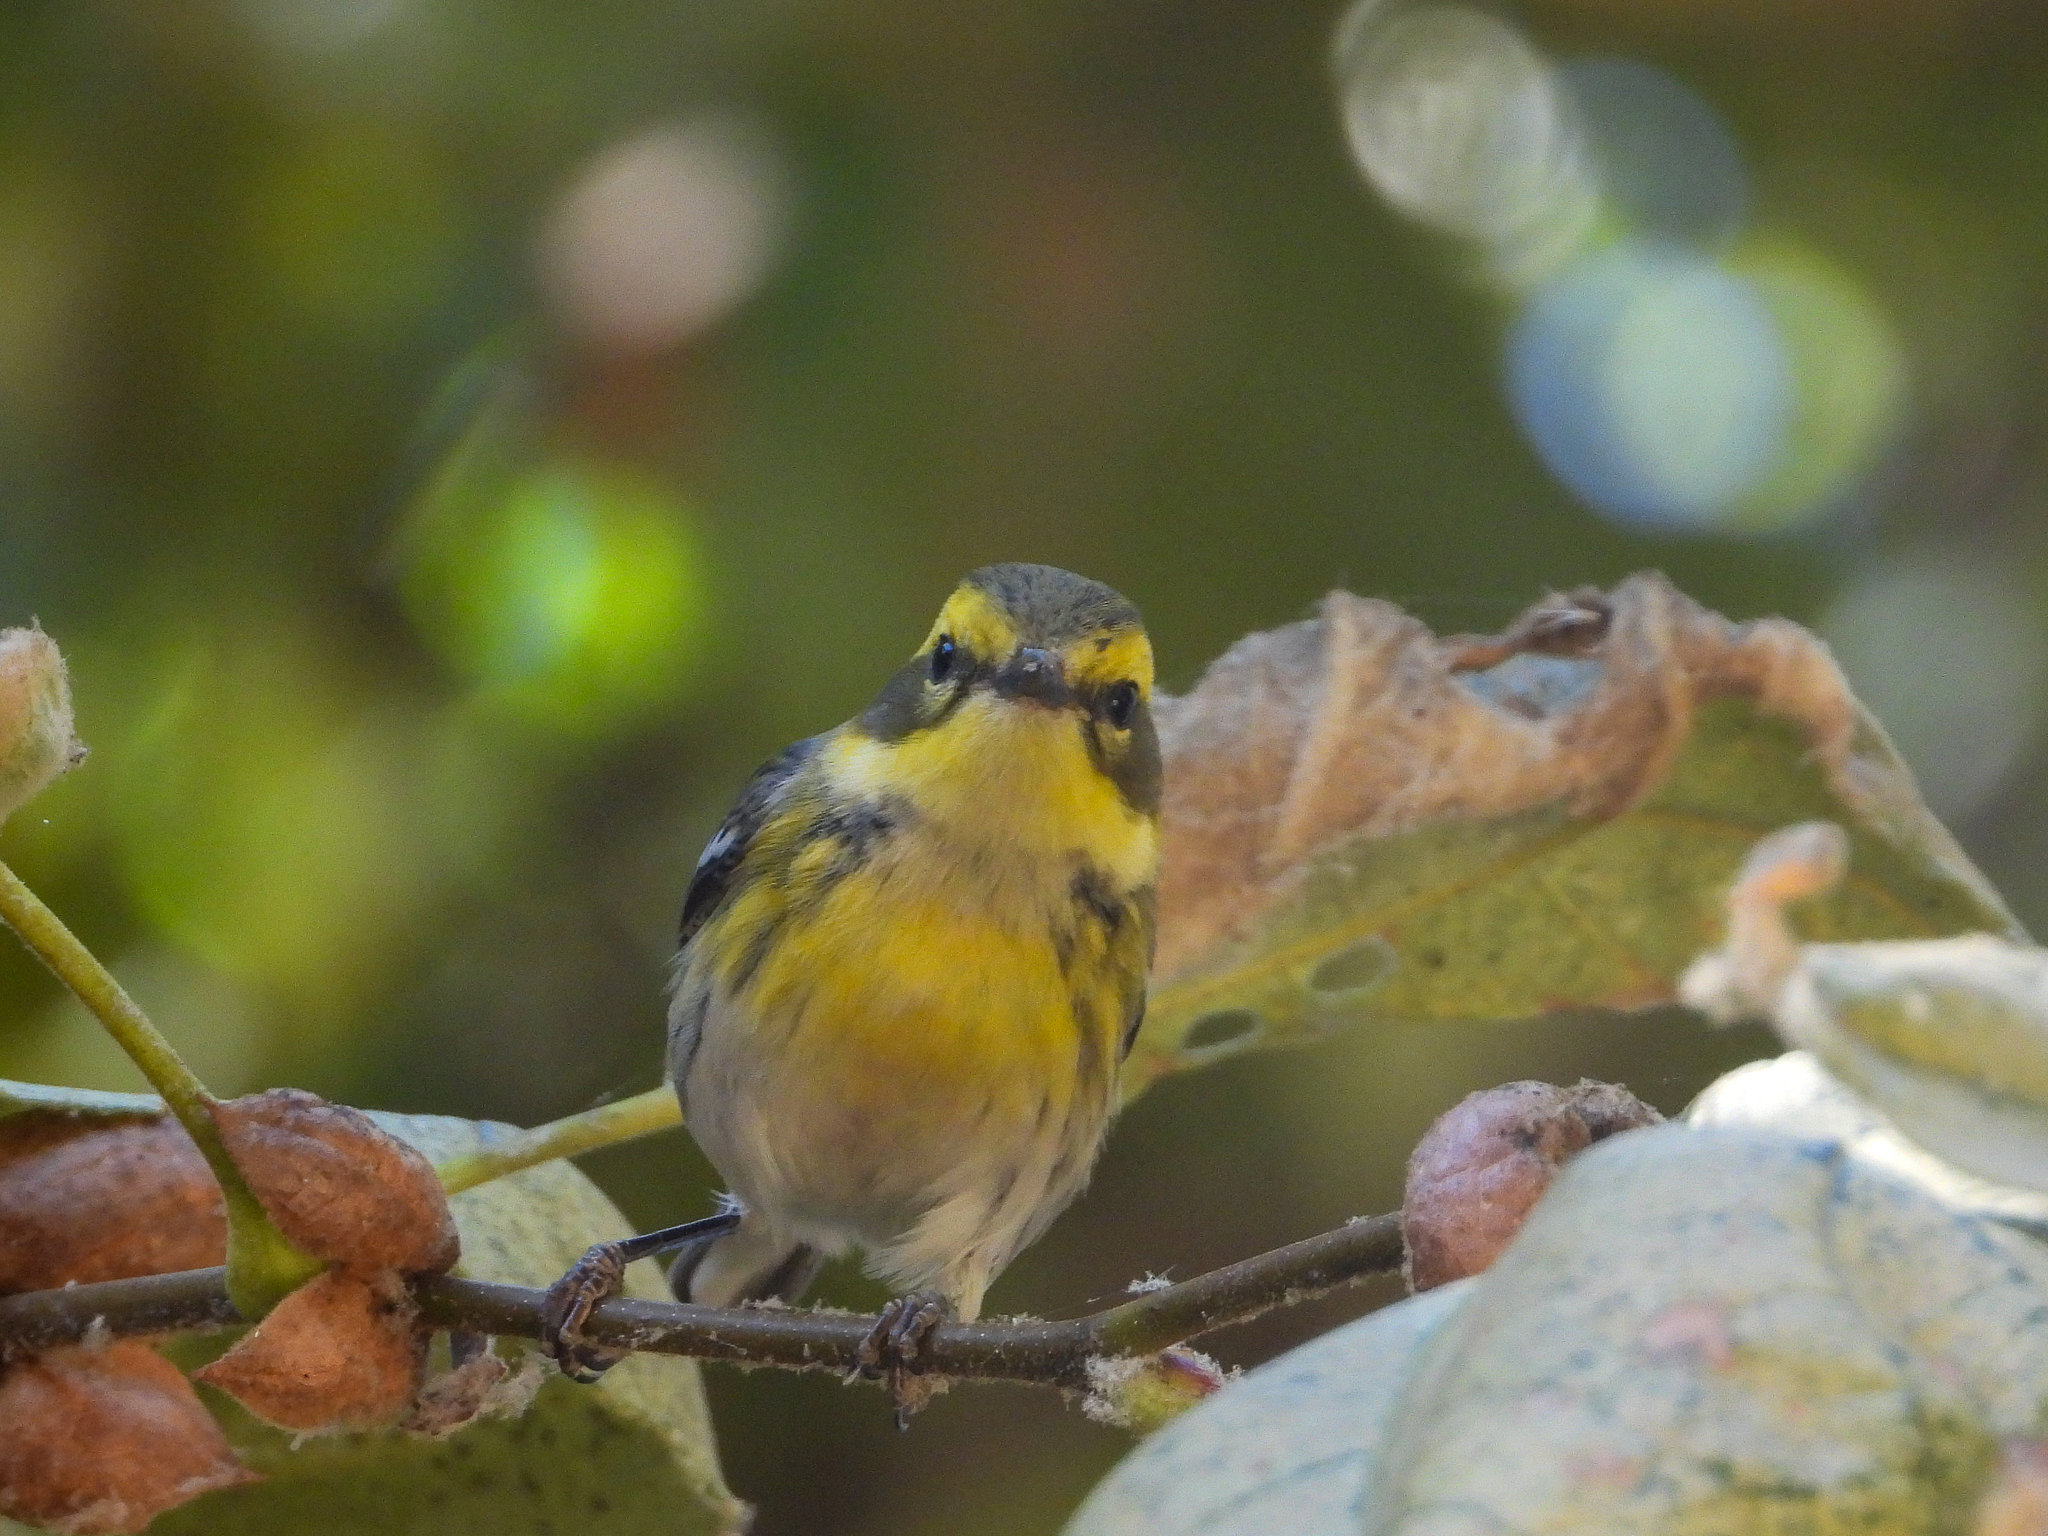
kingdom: Animalia
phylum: Chordata
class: Aves
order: Passeriformes
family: Parulidae
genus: Setophaga
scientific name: Setophaga townsendi
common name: Townsend's warbler
